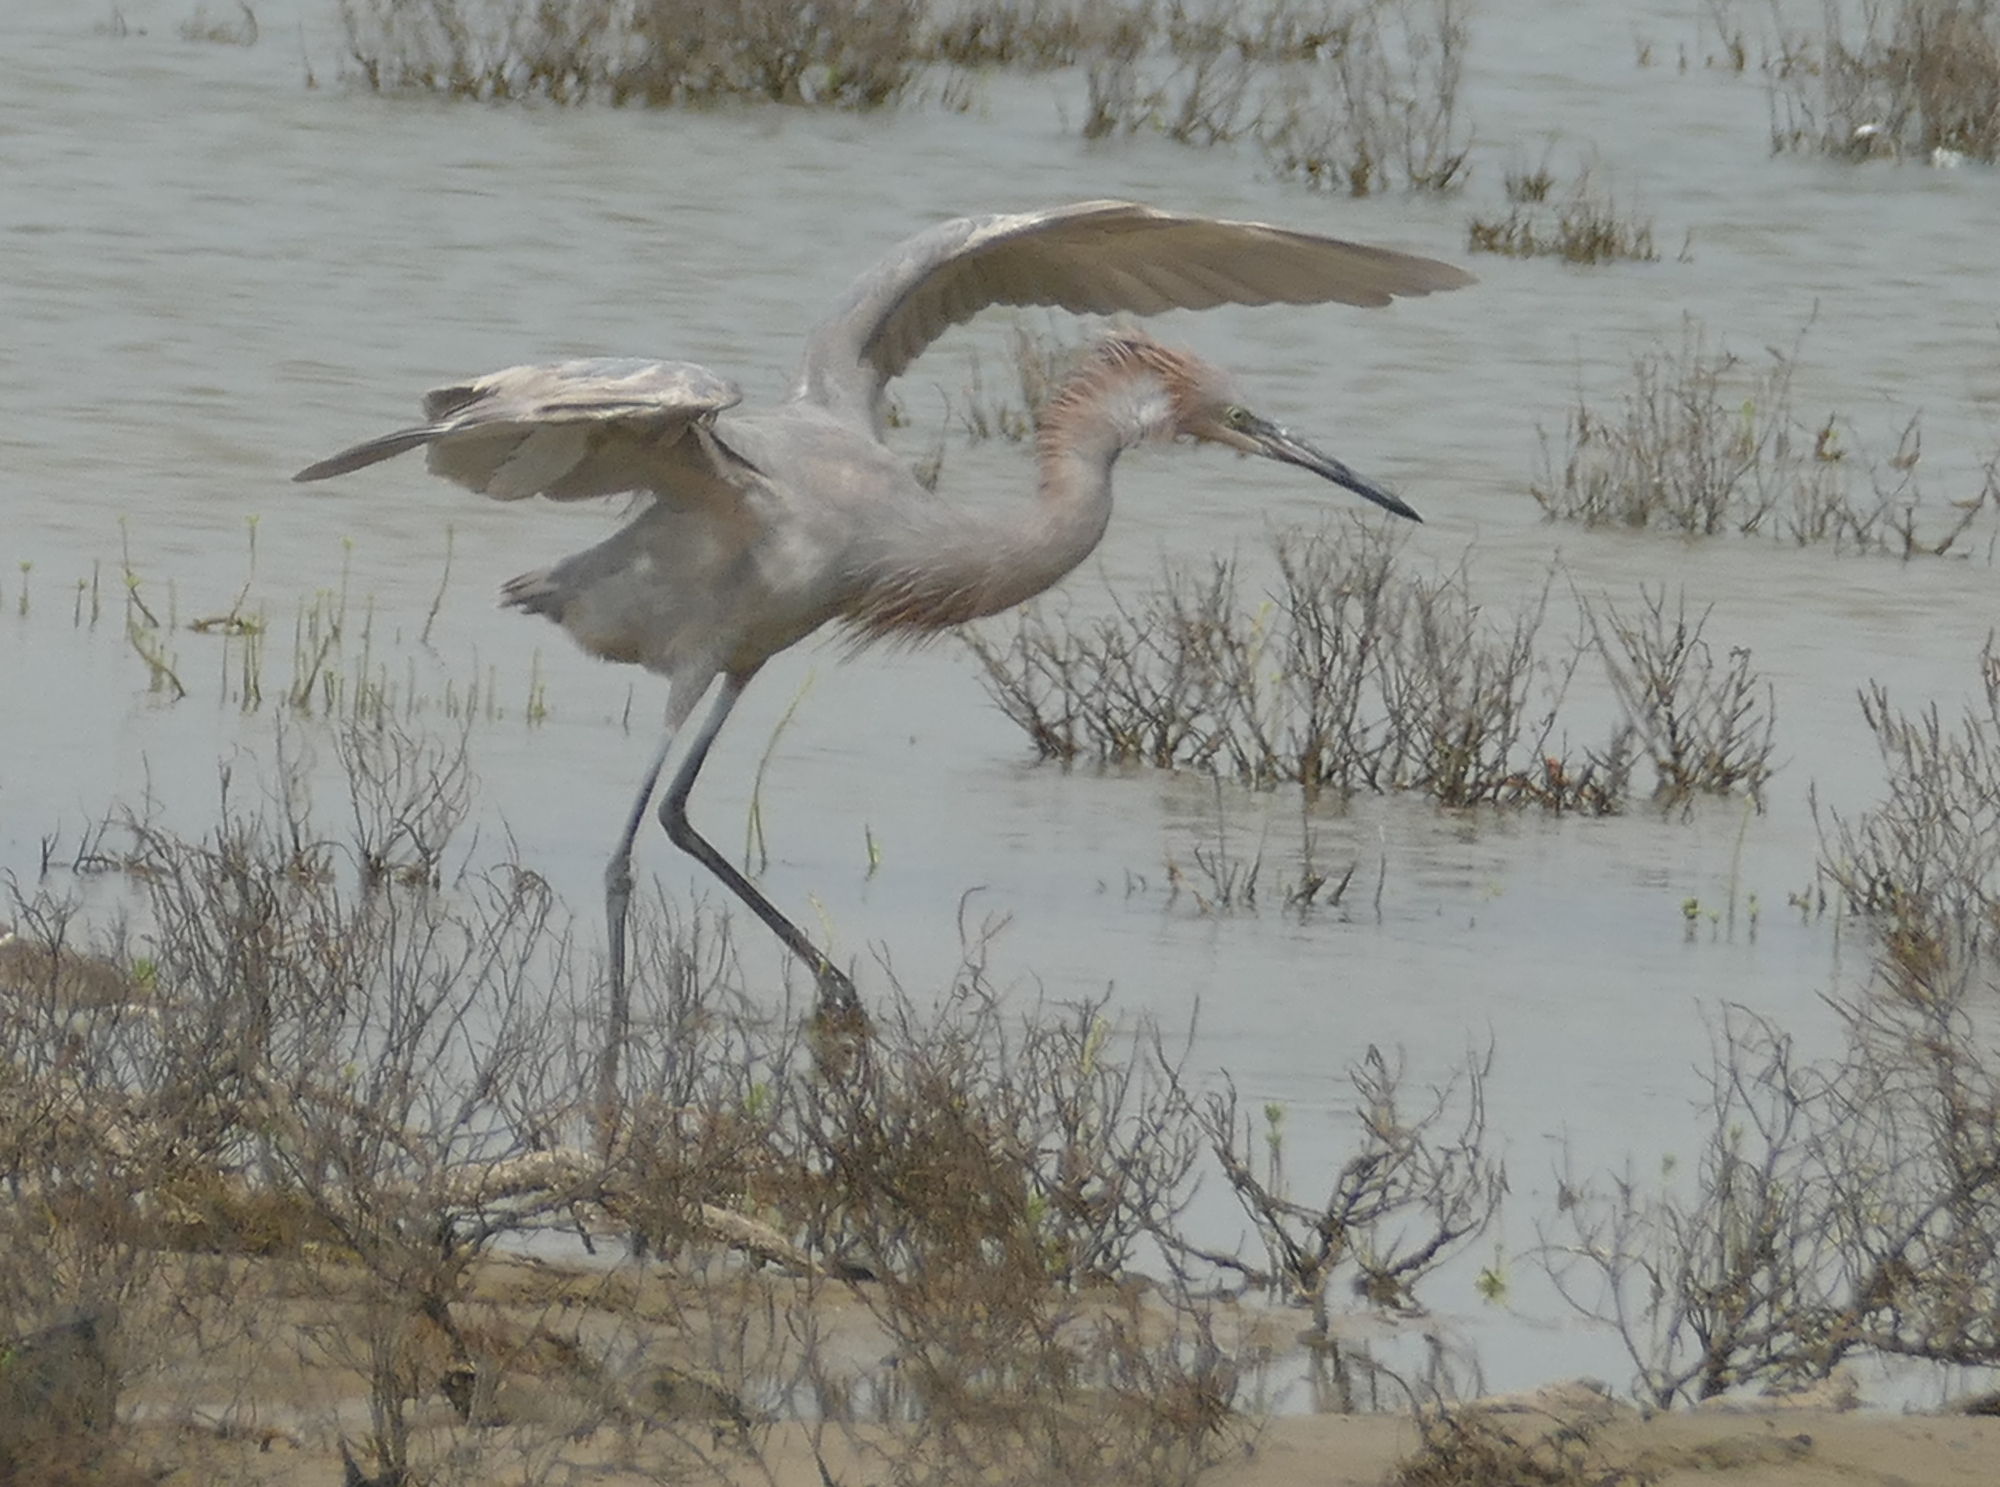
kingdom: Animalia
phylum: Chordata
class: Aves
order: Pelecaniformes
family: Ardeidae
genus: Egretta
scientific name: Egretta rufescens
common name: Reddish egret
